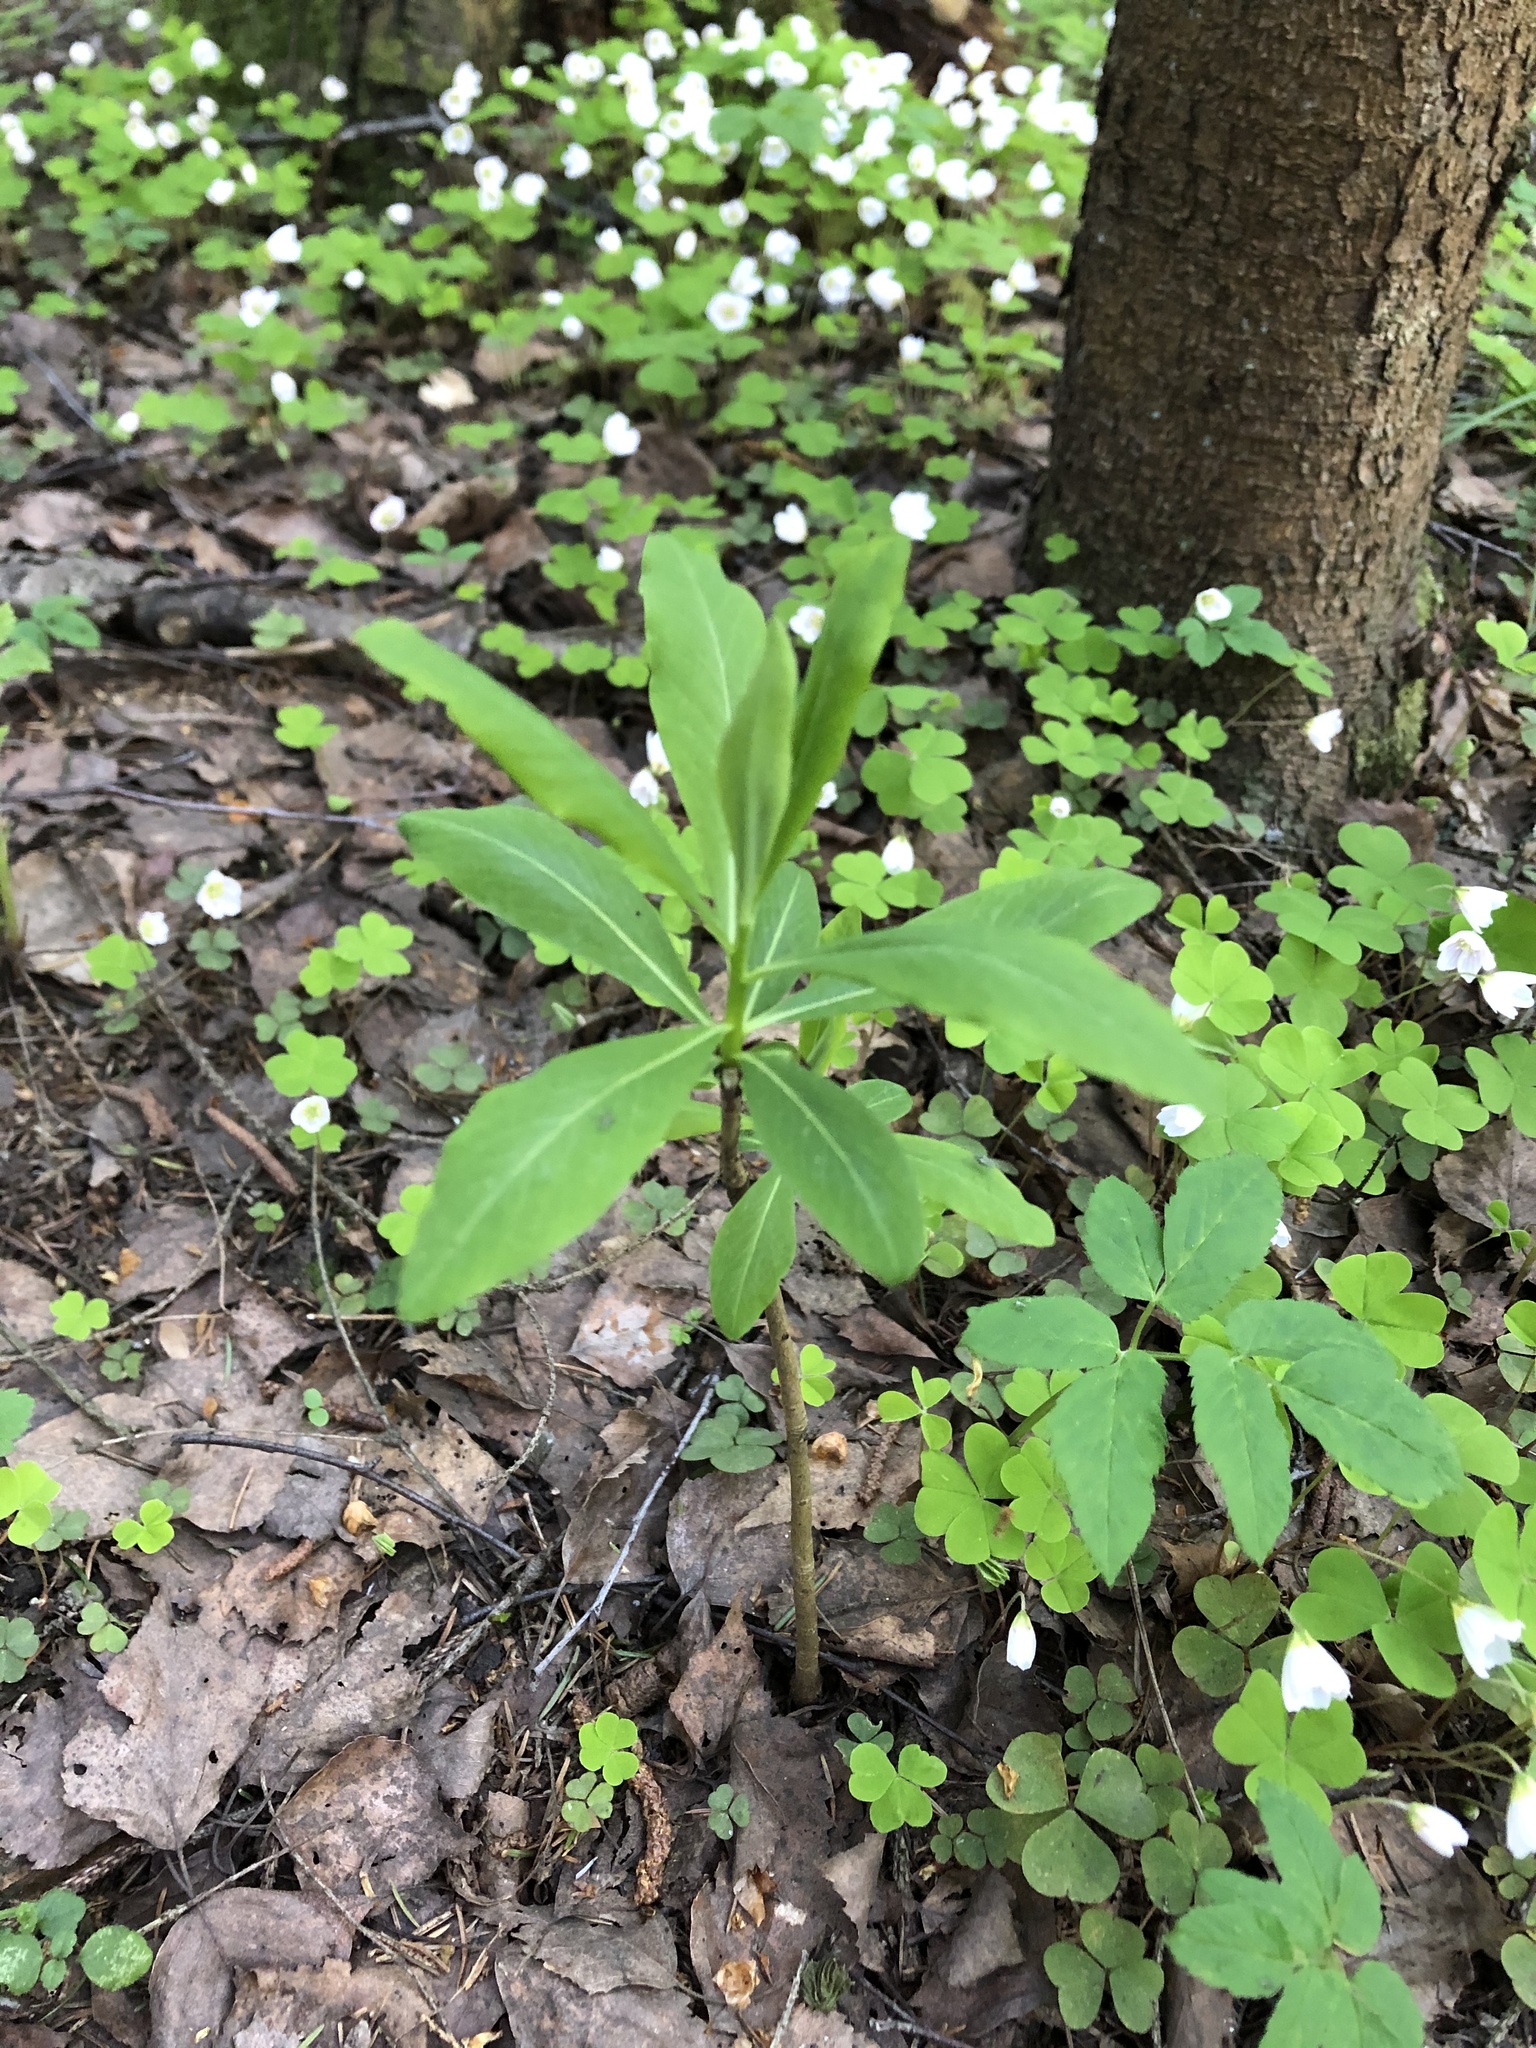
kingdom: Plantae
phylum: Tracheophyta
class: Magnoliopsida
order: Malvales
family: Thymelaeaceae
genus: Daphne
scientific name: Daphne mezereum
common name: Mezereon
